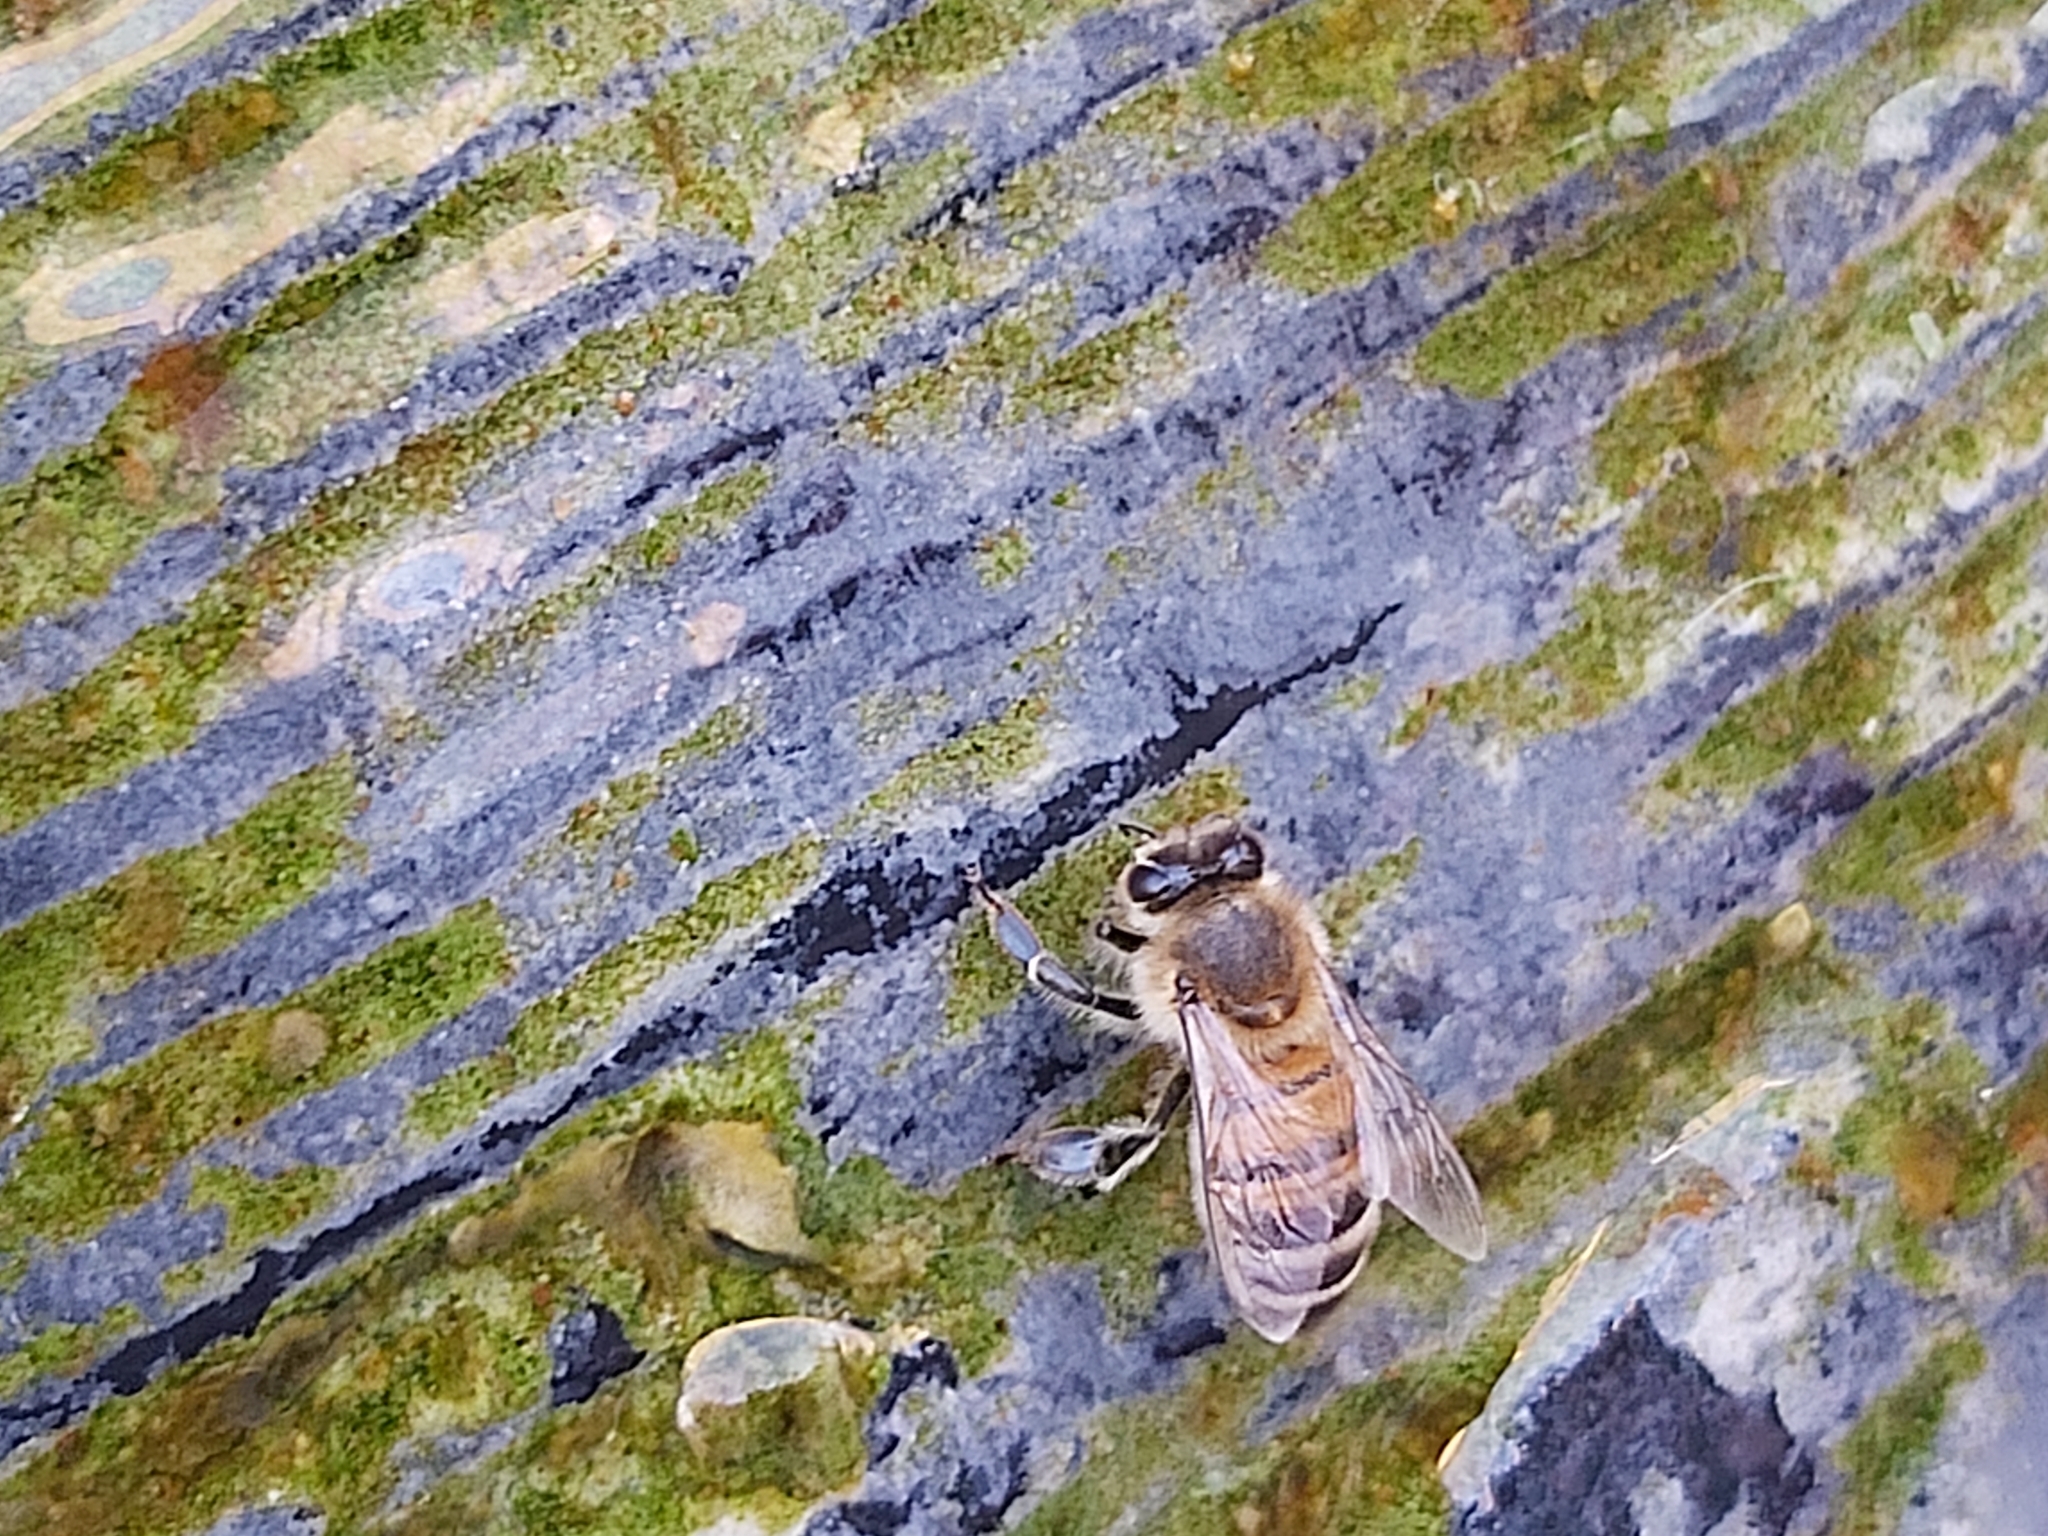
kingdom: Animalia
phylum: Arthropoda
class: Insecta
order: Hymenoptera
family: Apidae
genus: Apis
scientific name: Apis mellifera
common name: Honey bee
